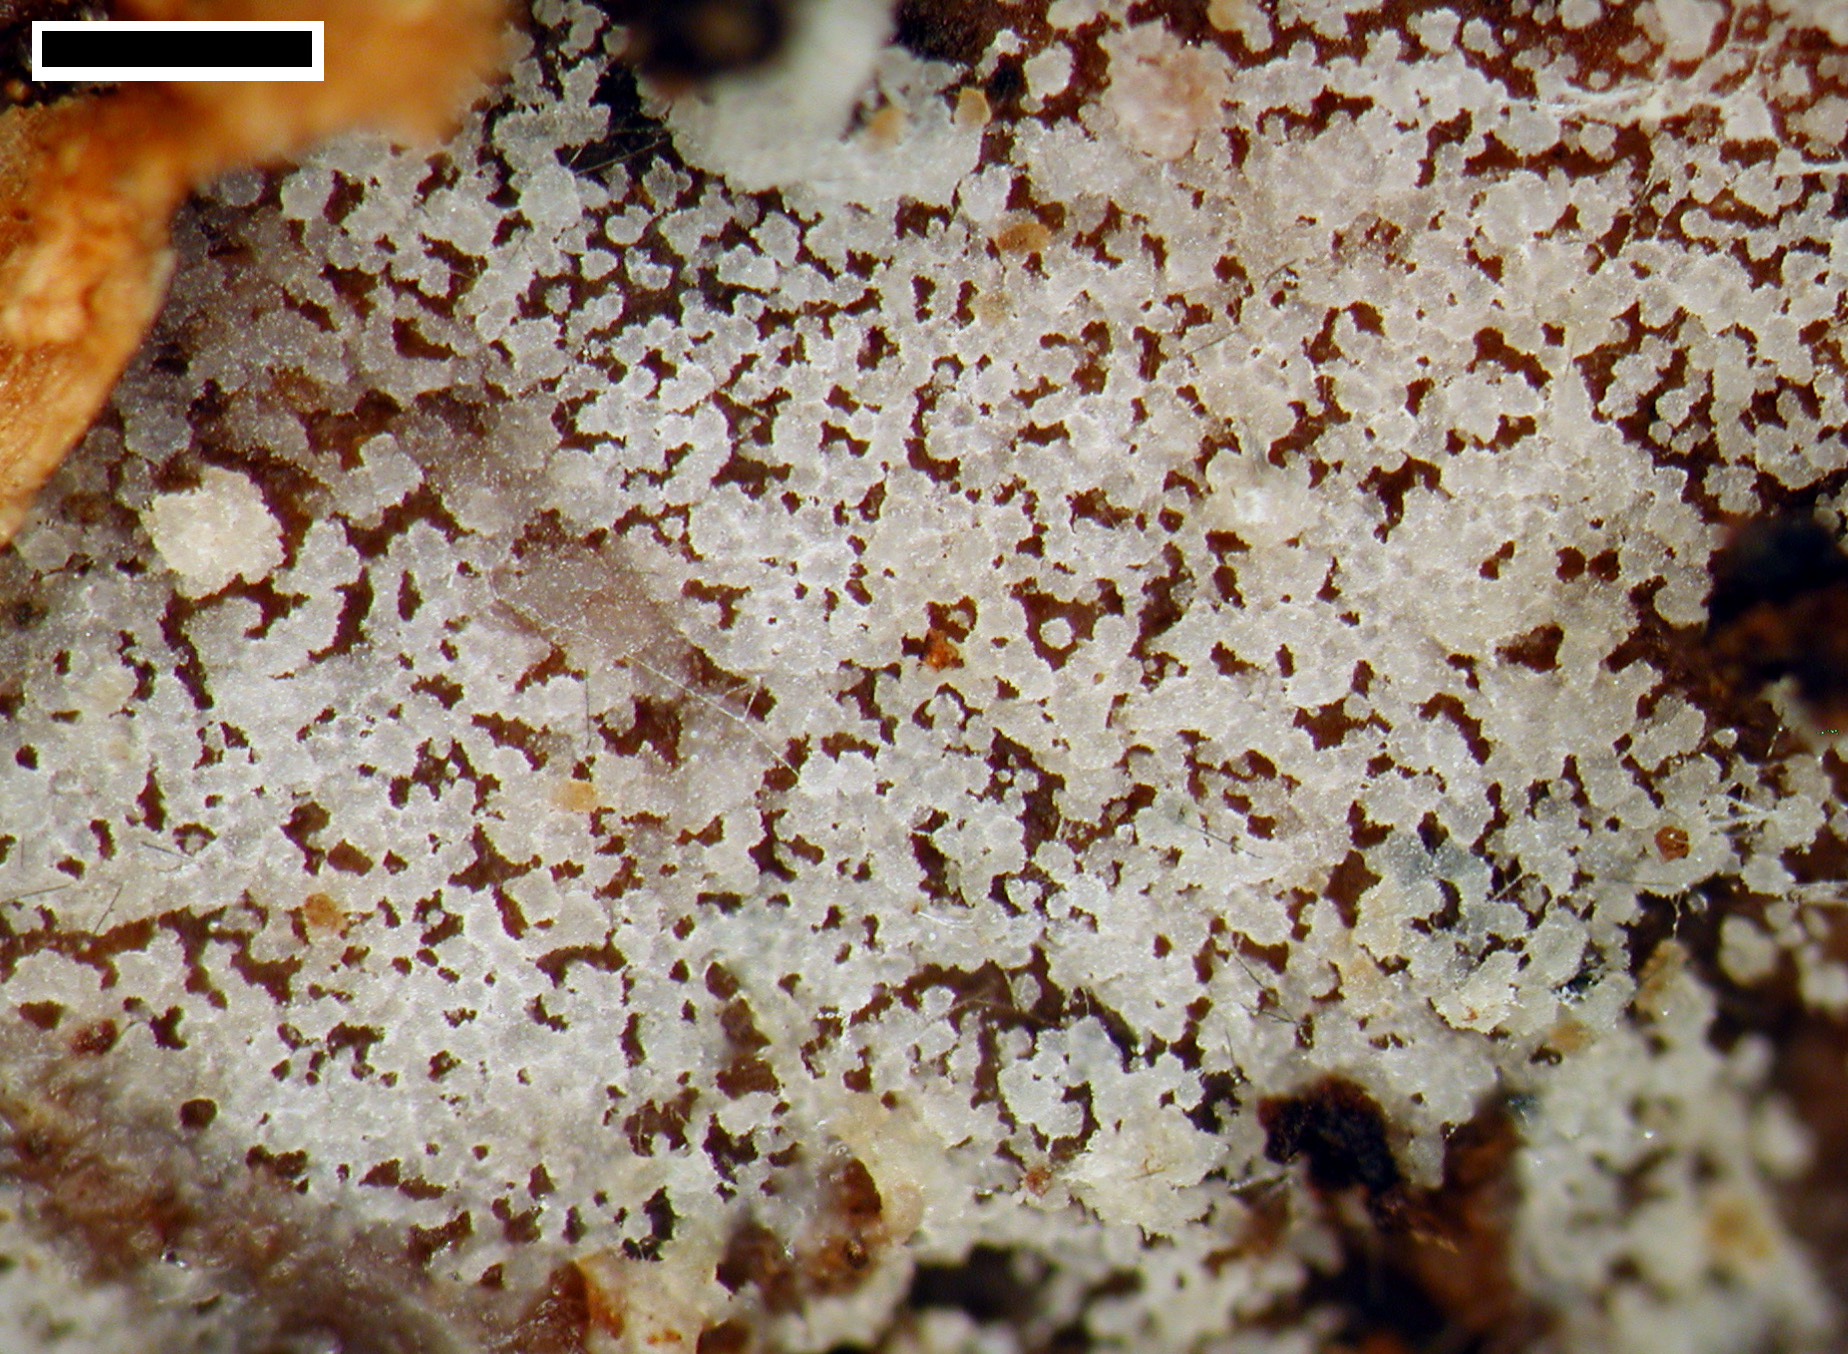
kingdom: Fungi
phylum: Basidiomycota
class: Agaricomycetes
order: Auriculariales
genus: Mycostilla
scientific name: Mycostilla vermiformis
